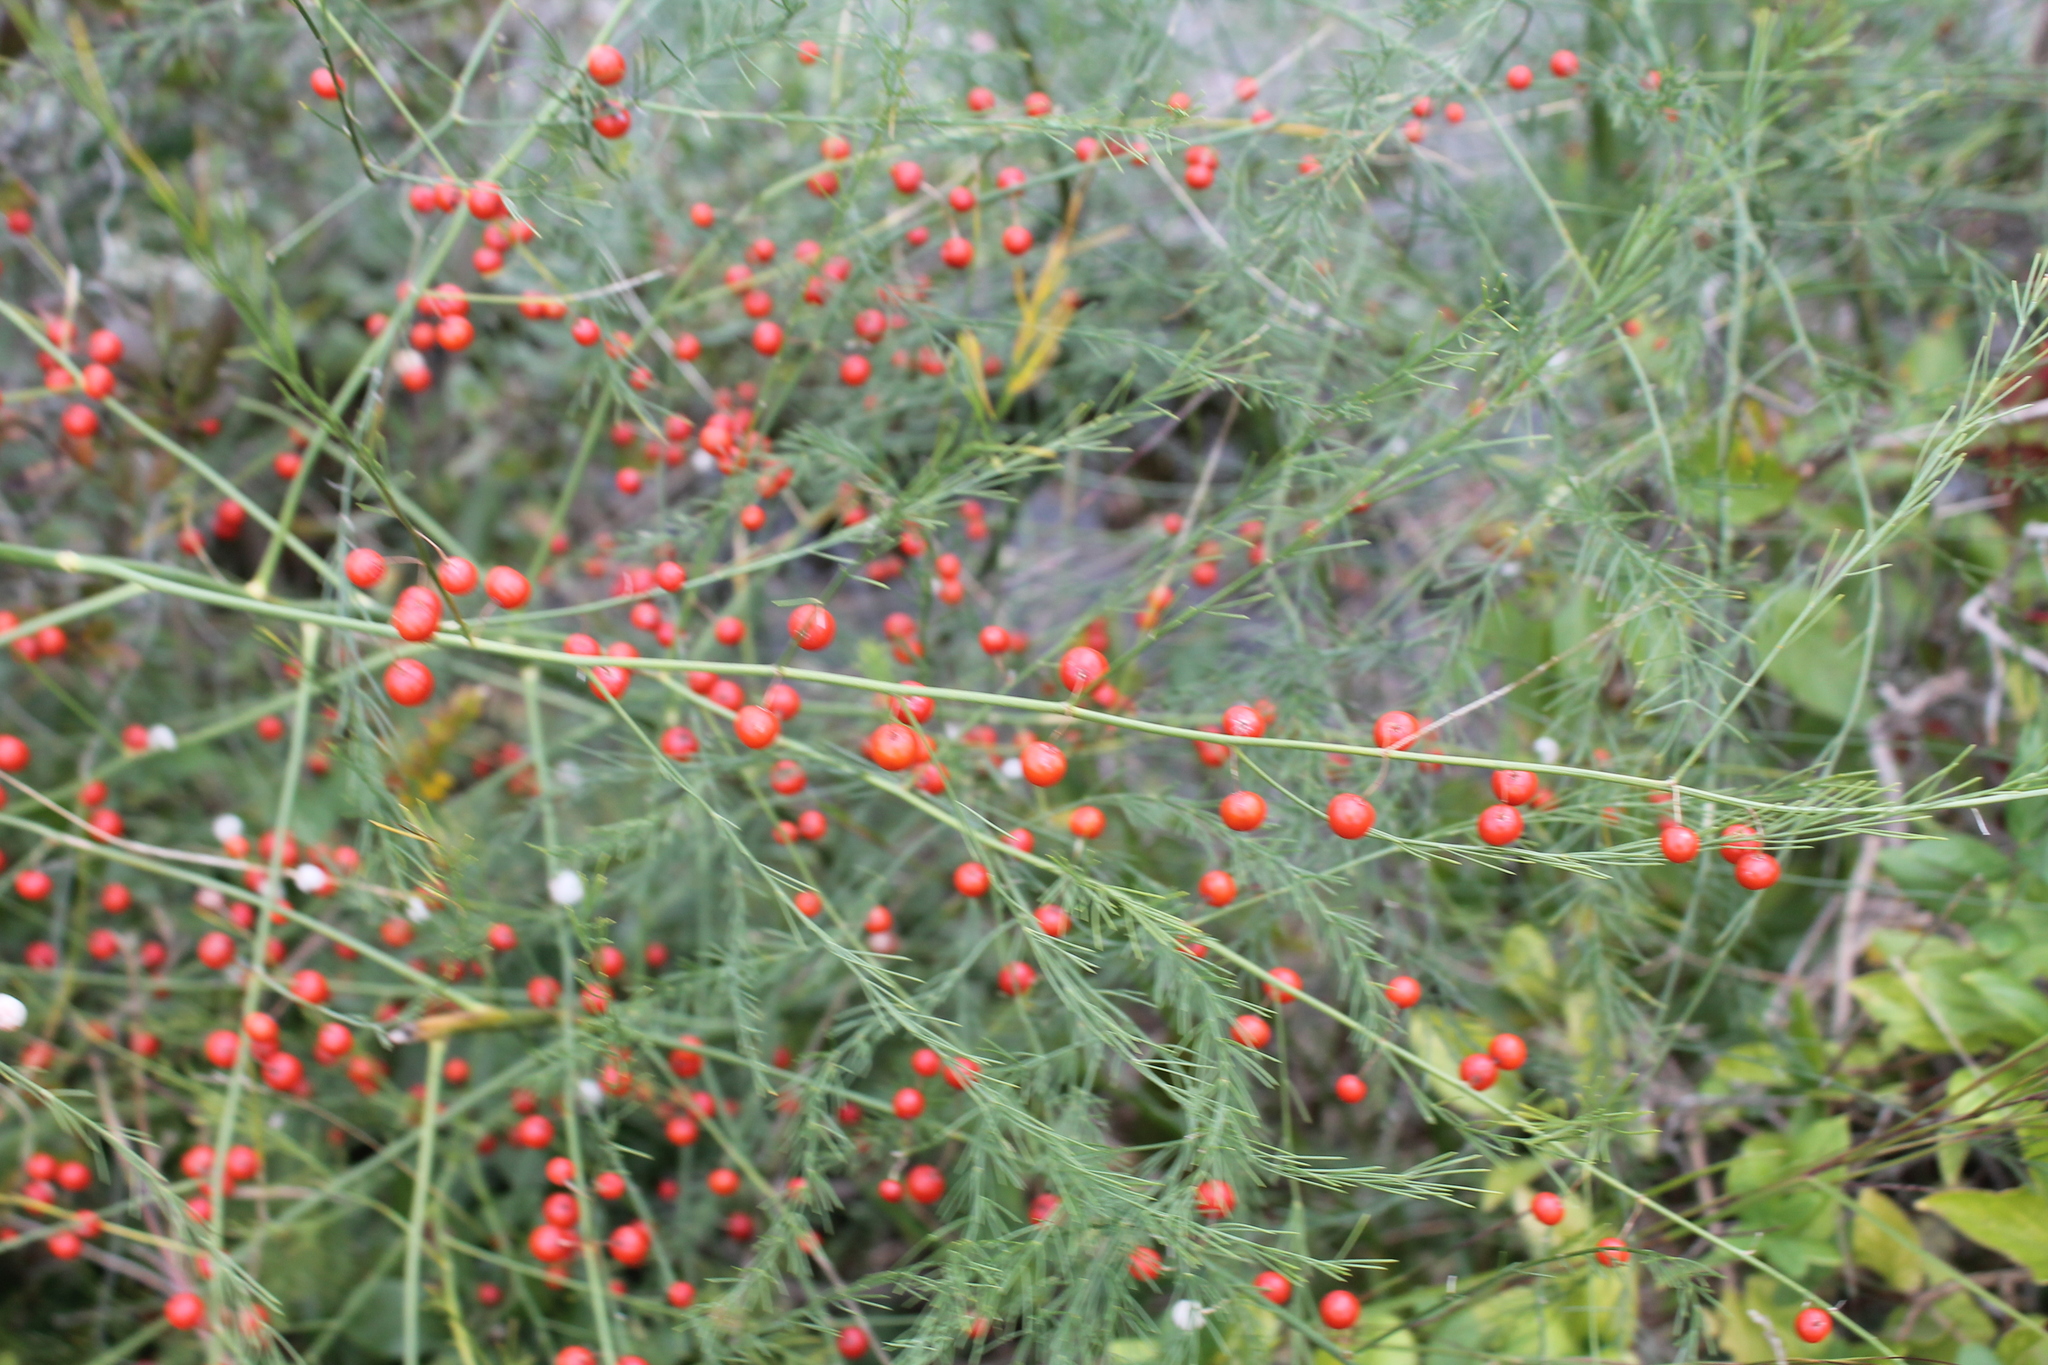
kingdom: Plantae
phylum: Tracheophyta
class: Liliopsida
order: Asparagales
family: Asparagaceae
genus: Asparagus
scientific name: Asparagus officinalis
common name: Garden asparagus
